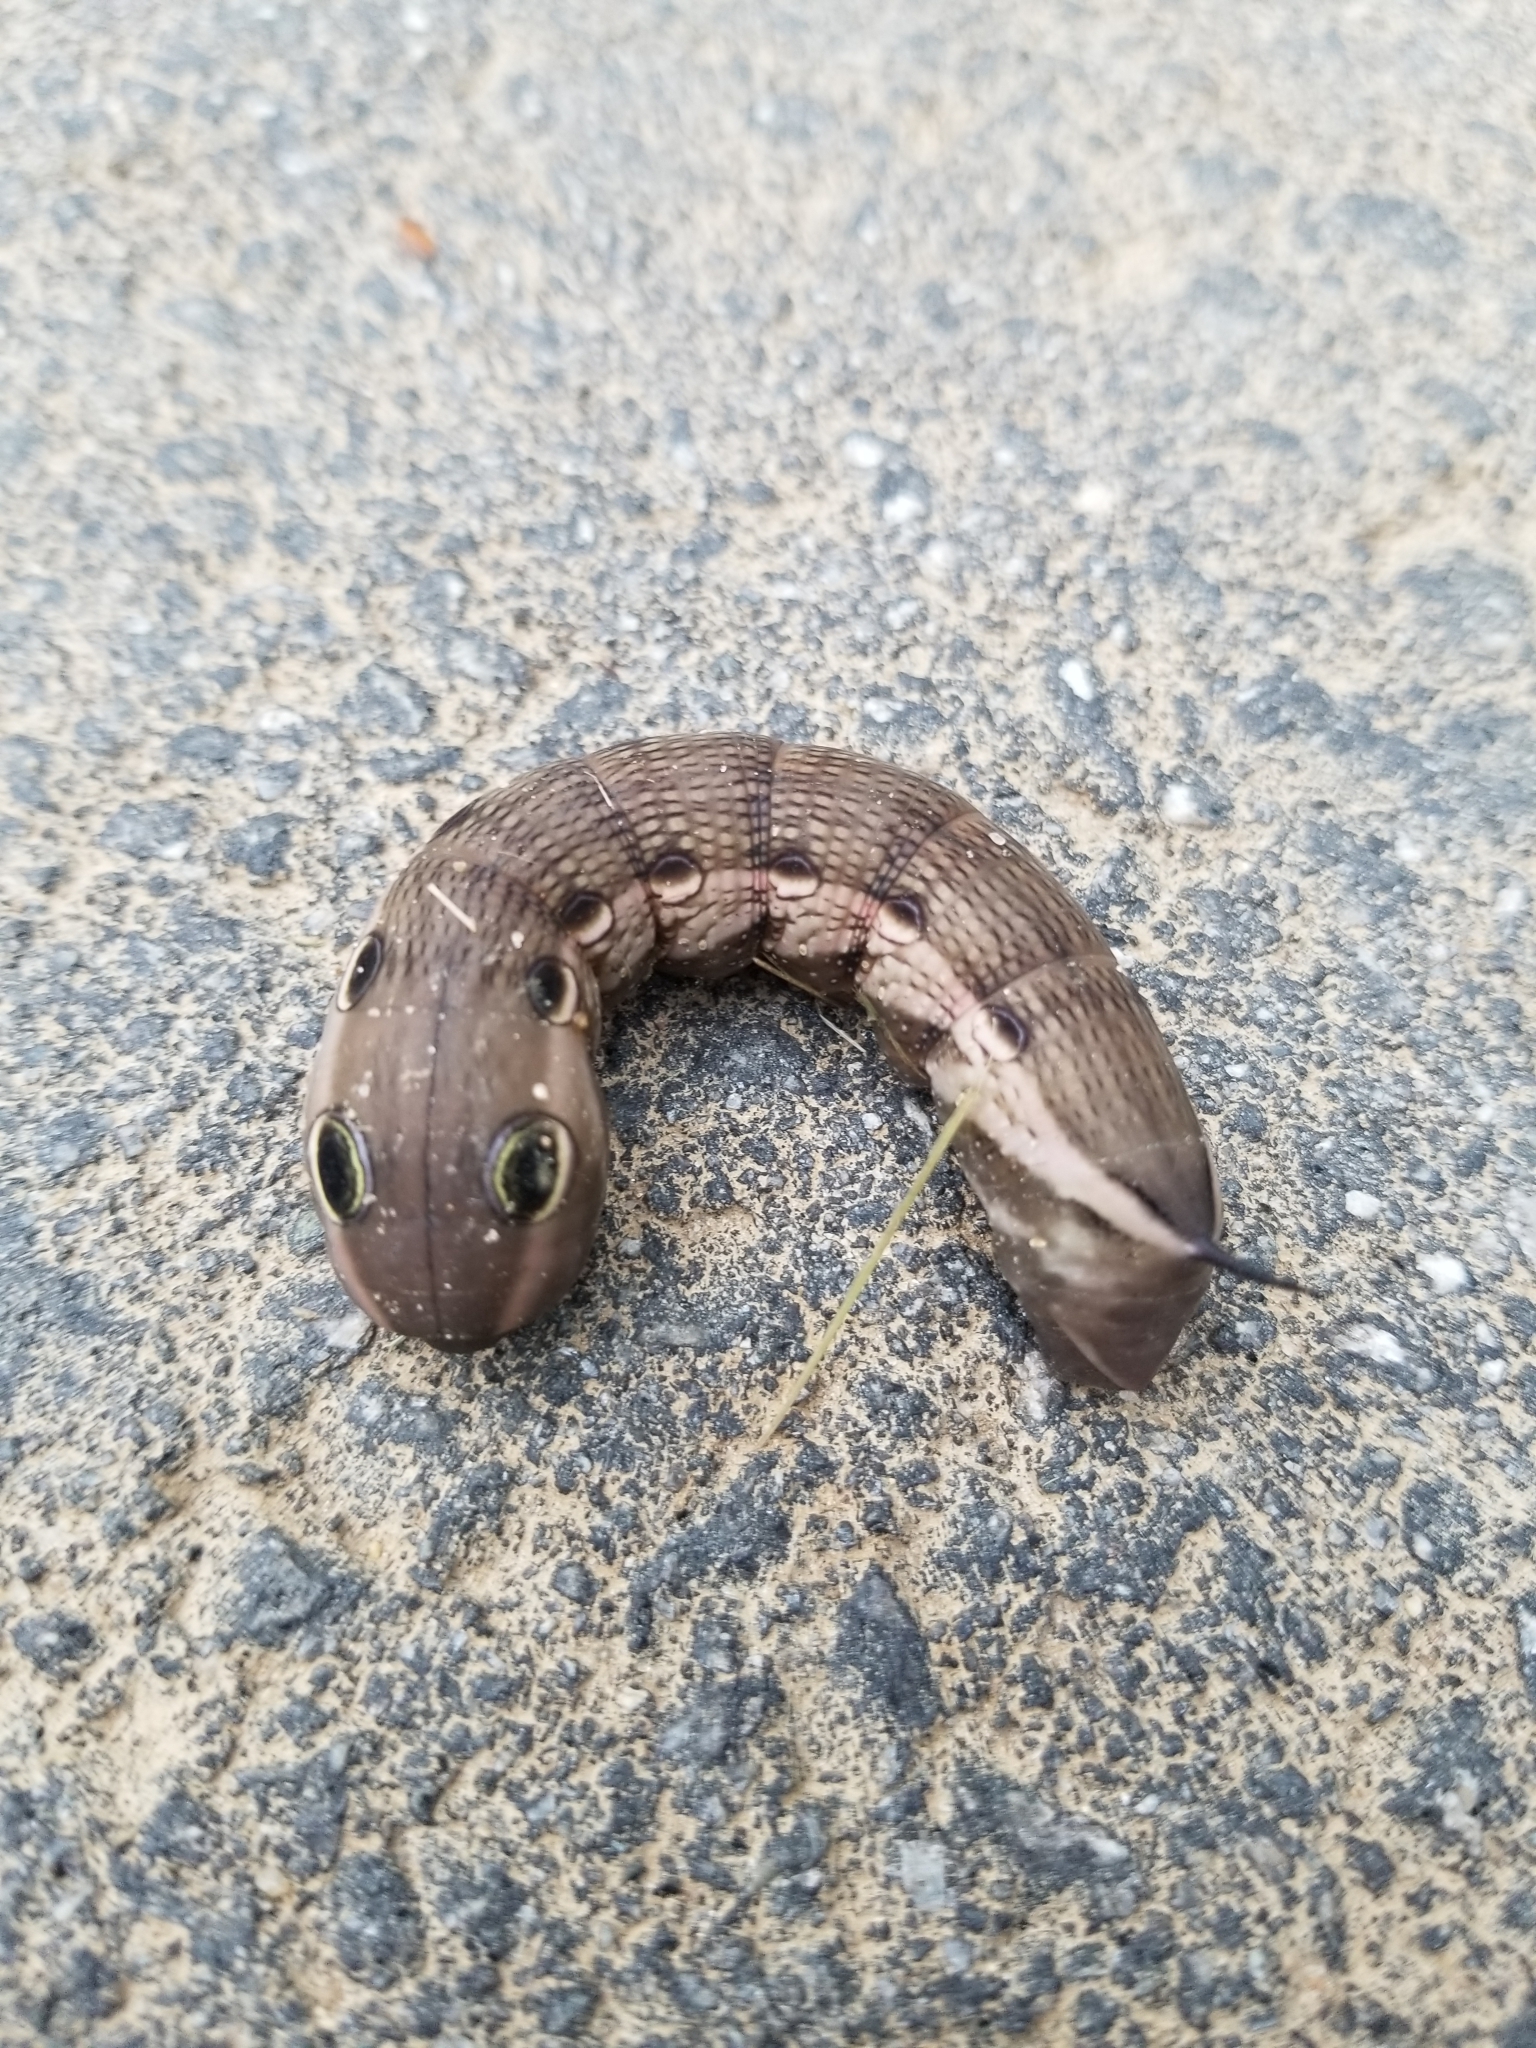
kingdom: Animalia
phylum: Arthropoda
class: Insecta
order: Lepidoptera
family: Sphingidae
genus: Xylophanes
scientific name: Xylophanes tersa
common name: Tersa sphinx
